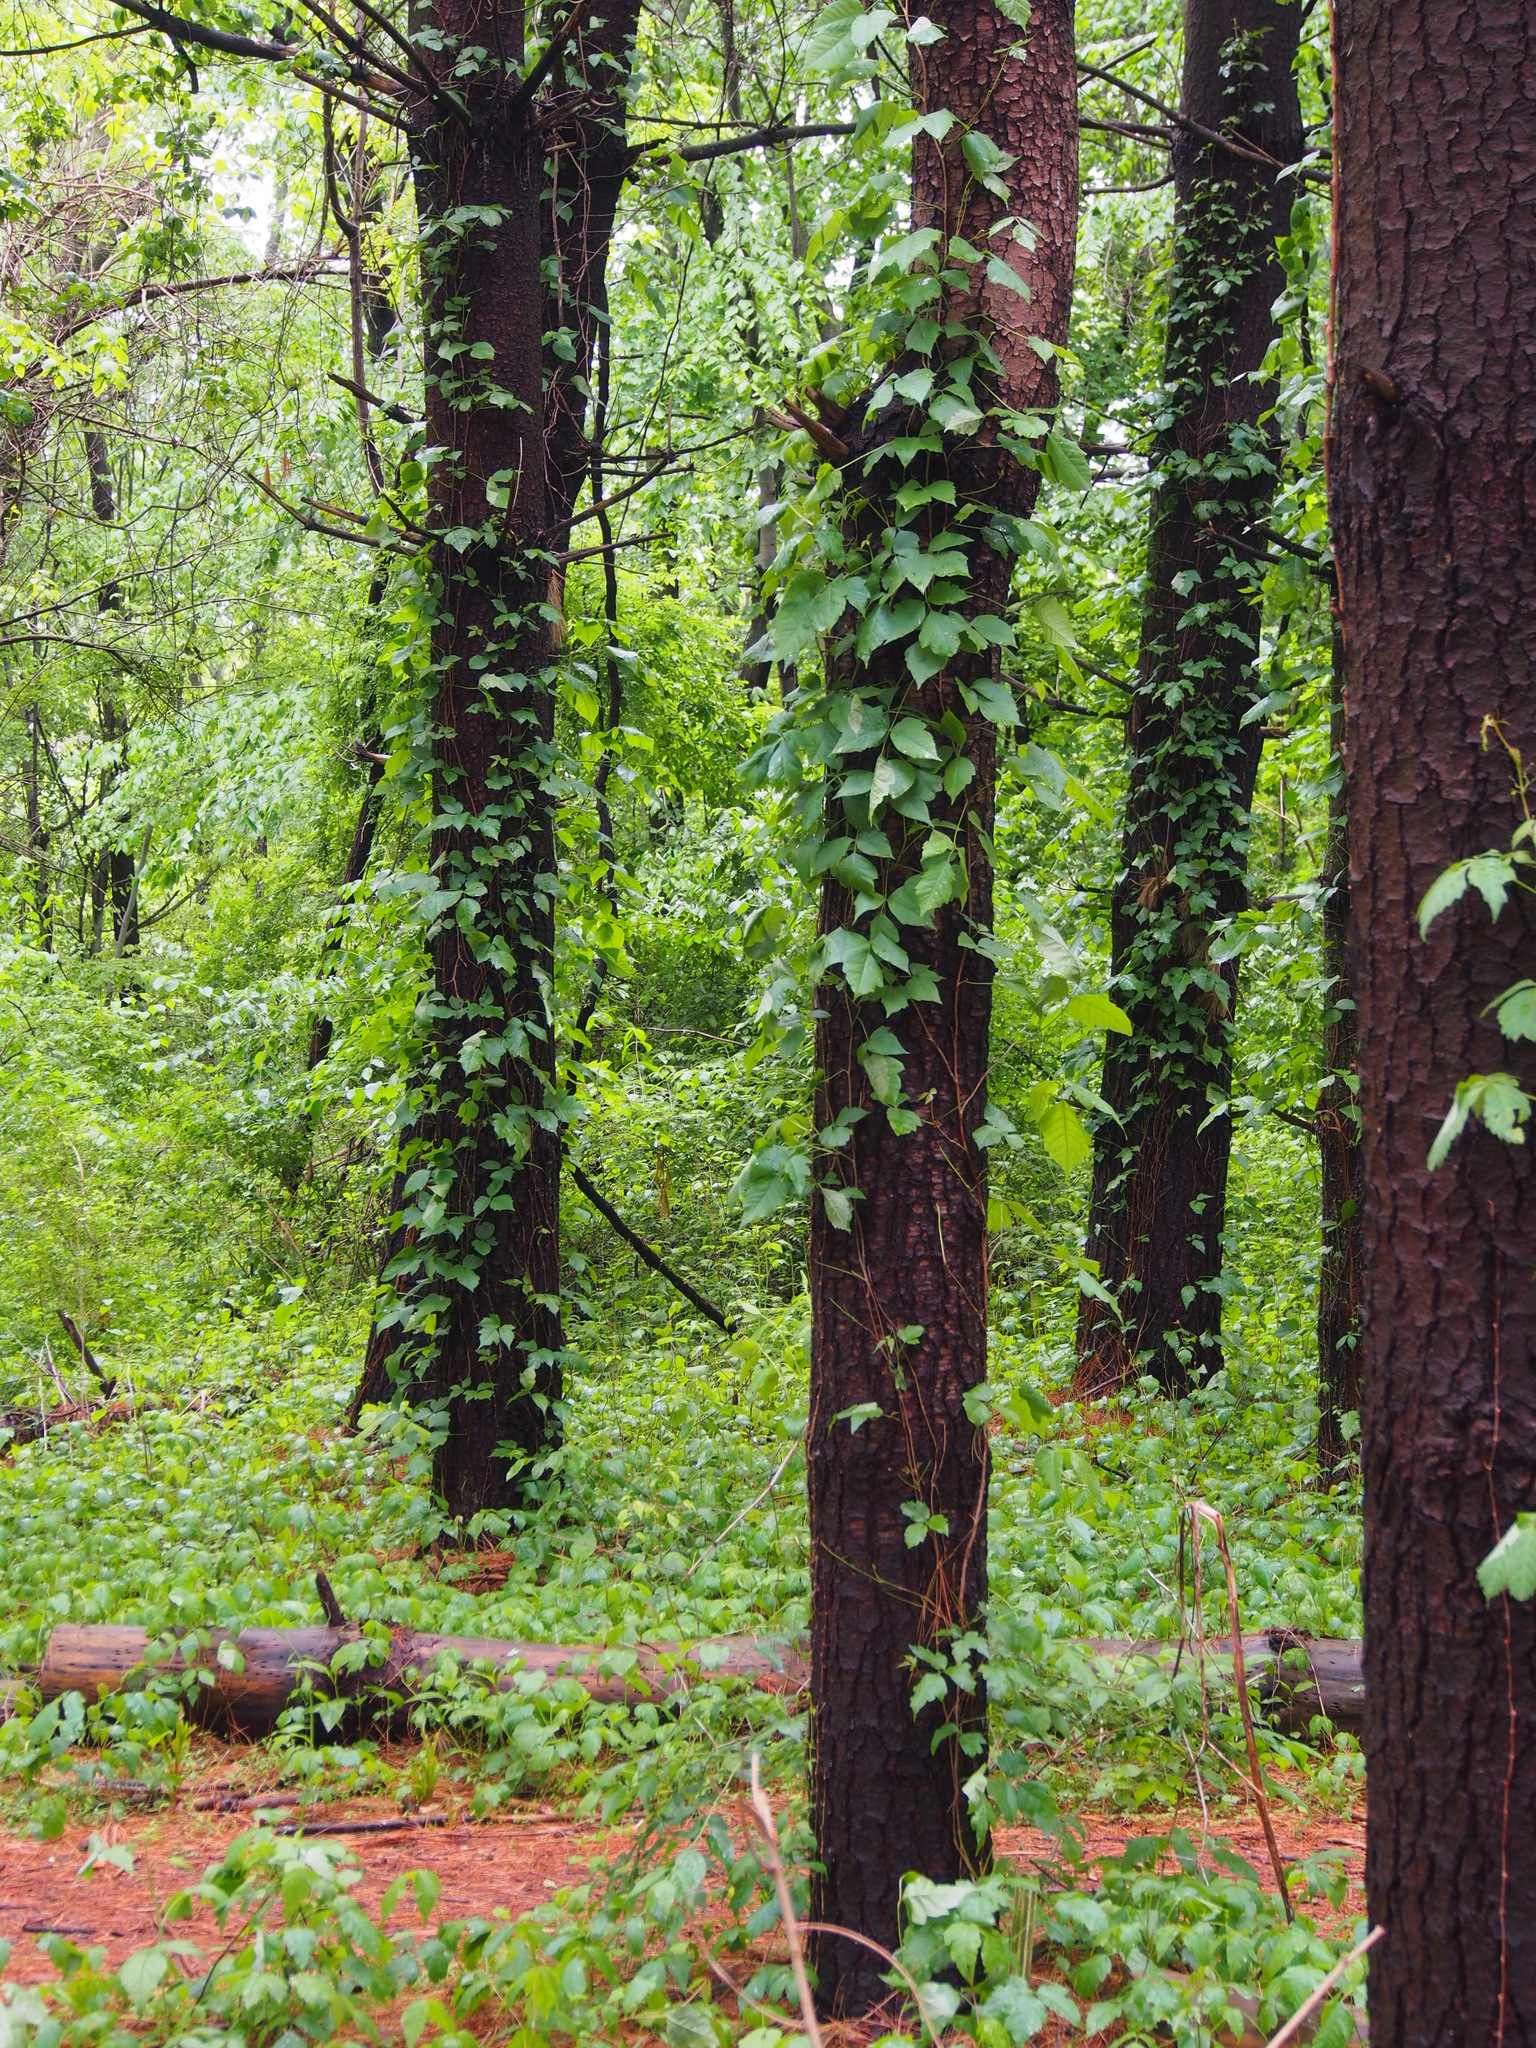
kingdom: Plantae
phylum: Tracheophyta
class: Magnoliopsida
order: Sapindales
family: Anacardiaceae
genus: Toxicodendron
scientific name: Toxicodendron radicans
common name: Poison ivy
